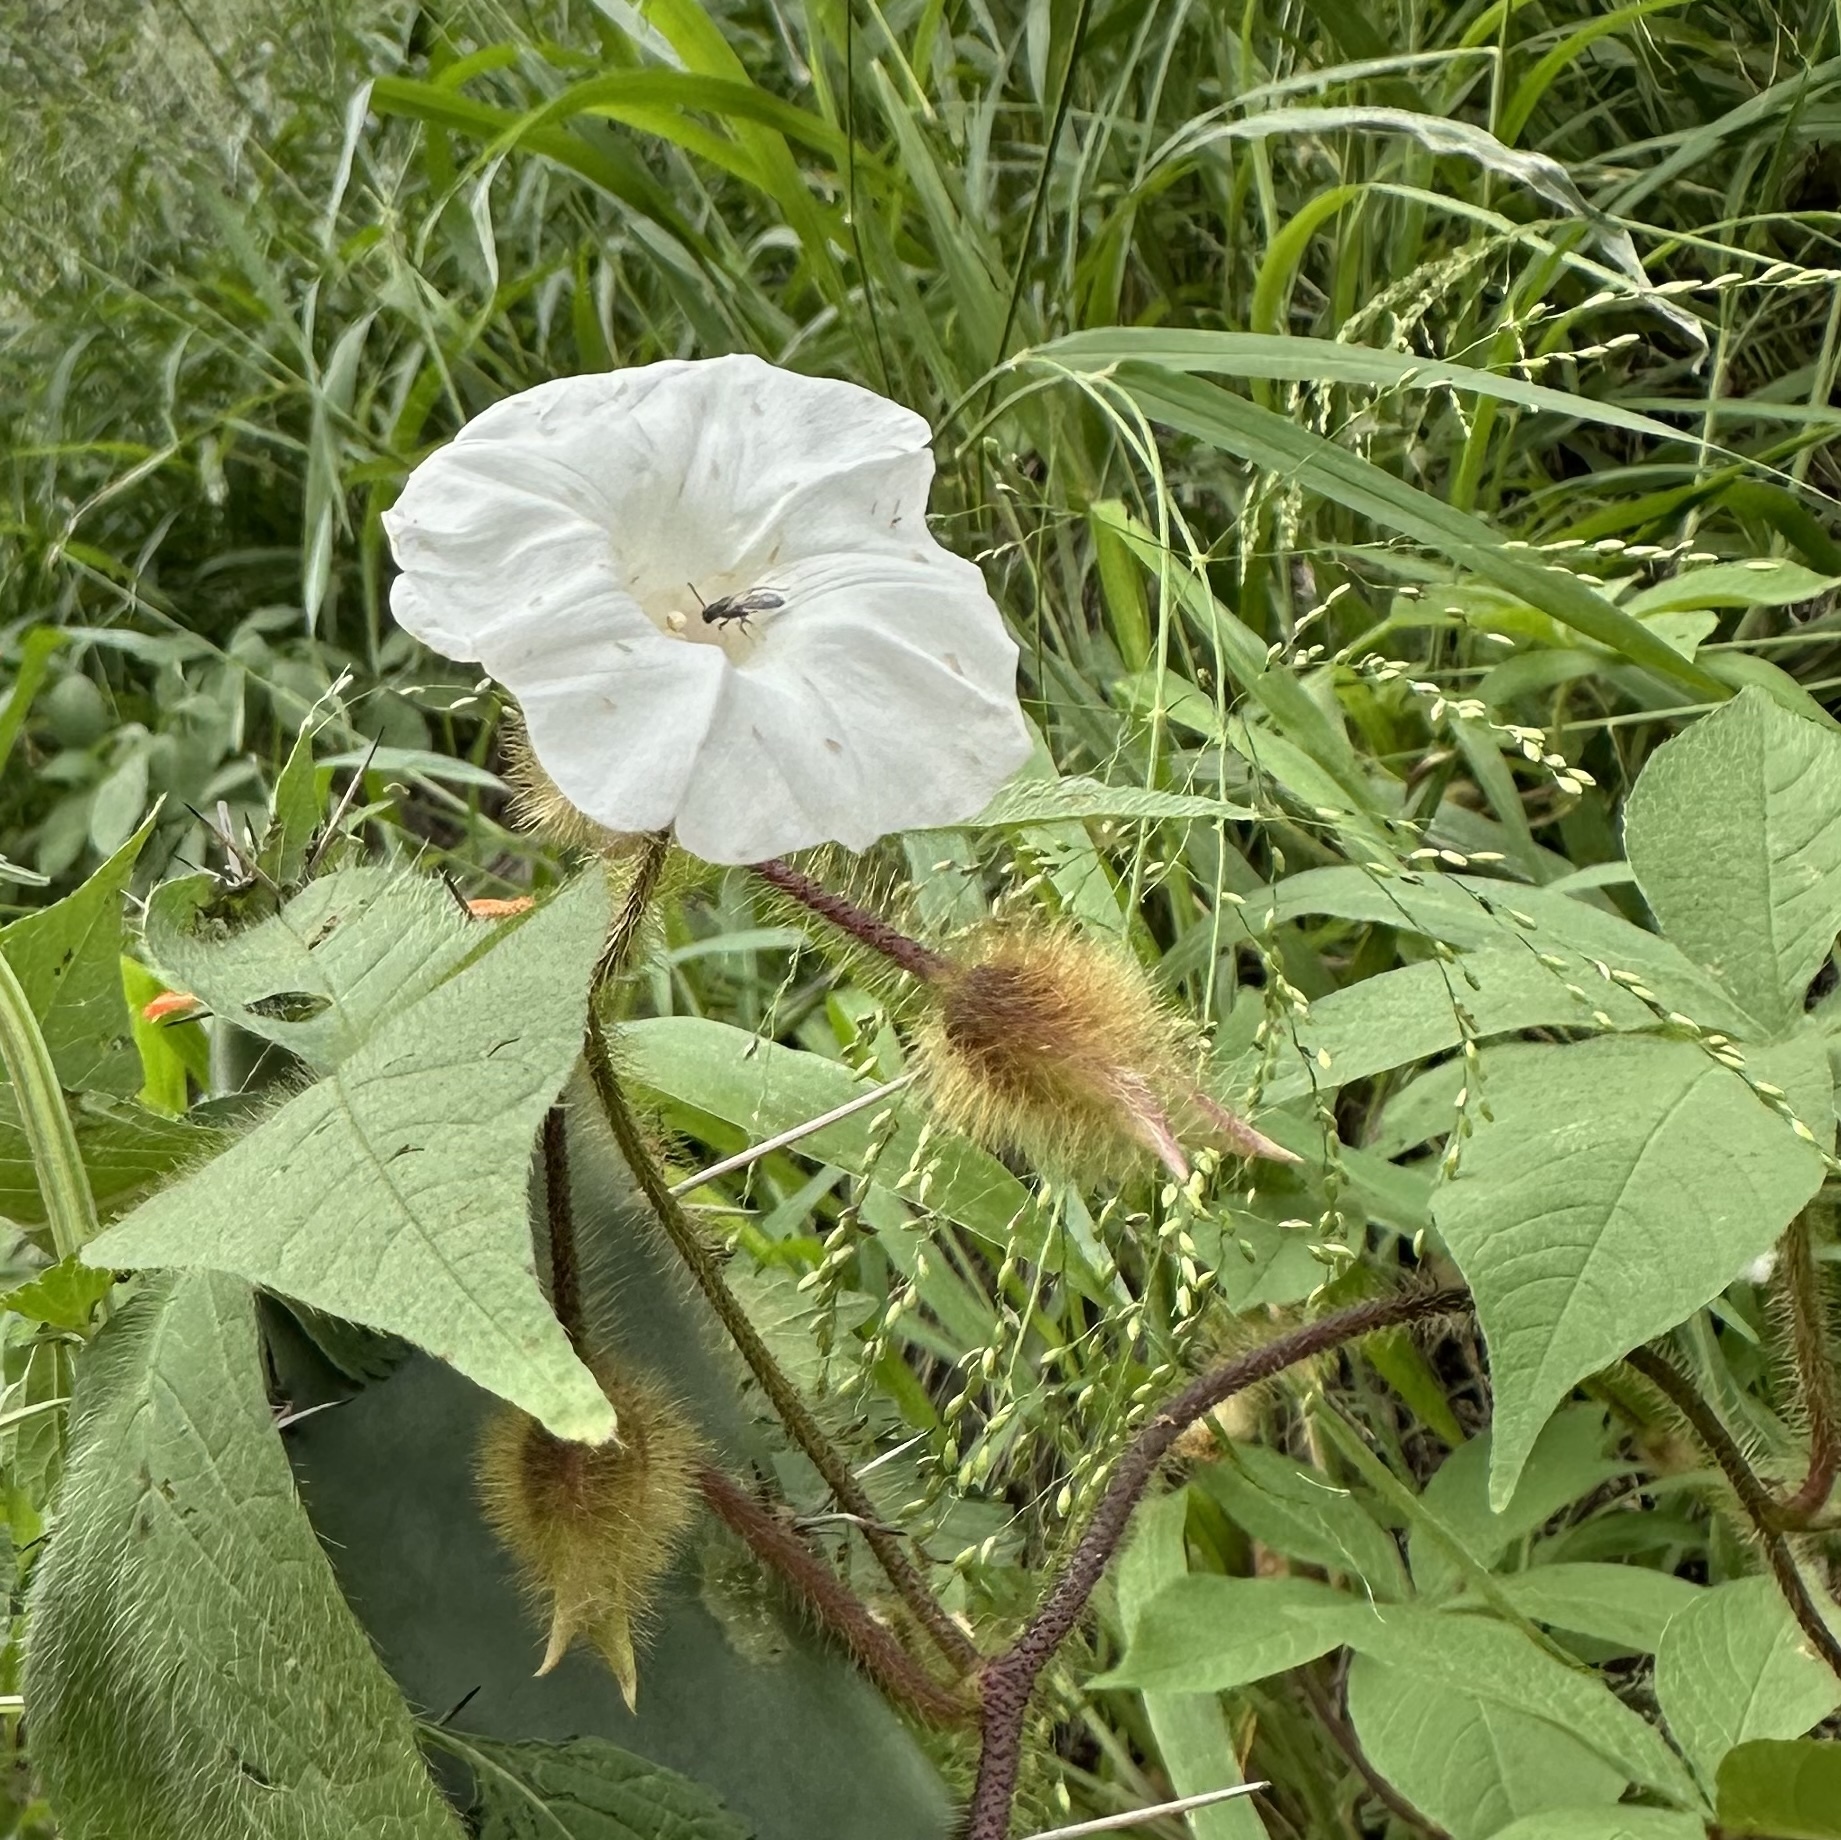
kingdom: Plantae
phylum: Tracheophyta
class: Magnoliopsida
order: Solanales
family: Convolvulaceae
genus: Distimake
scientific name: Distimake aegyptius
